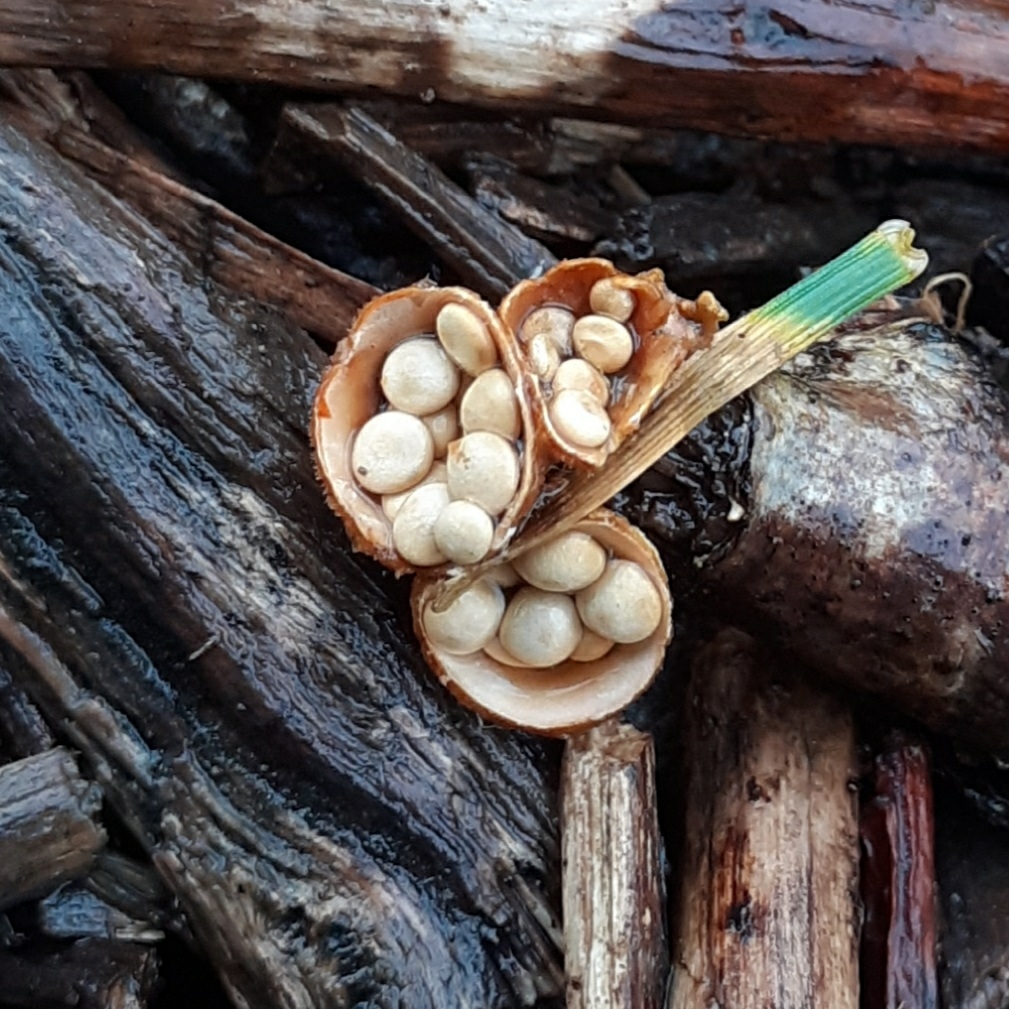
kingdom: Fungi
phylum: Basidiomycota
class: Agaricomycetes
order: Agaricales
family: Nidulariaceae
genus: Crucibulum
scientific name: Crucibulum laeve
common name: Common bird's nest
